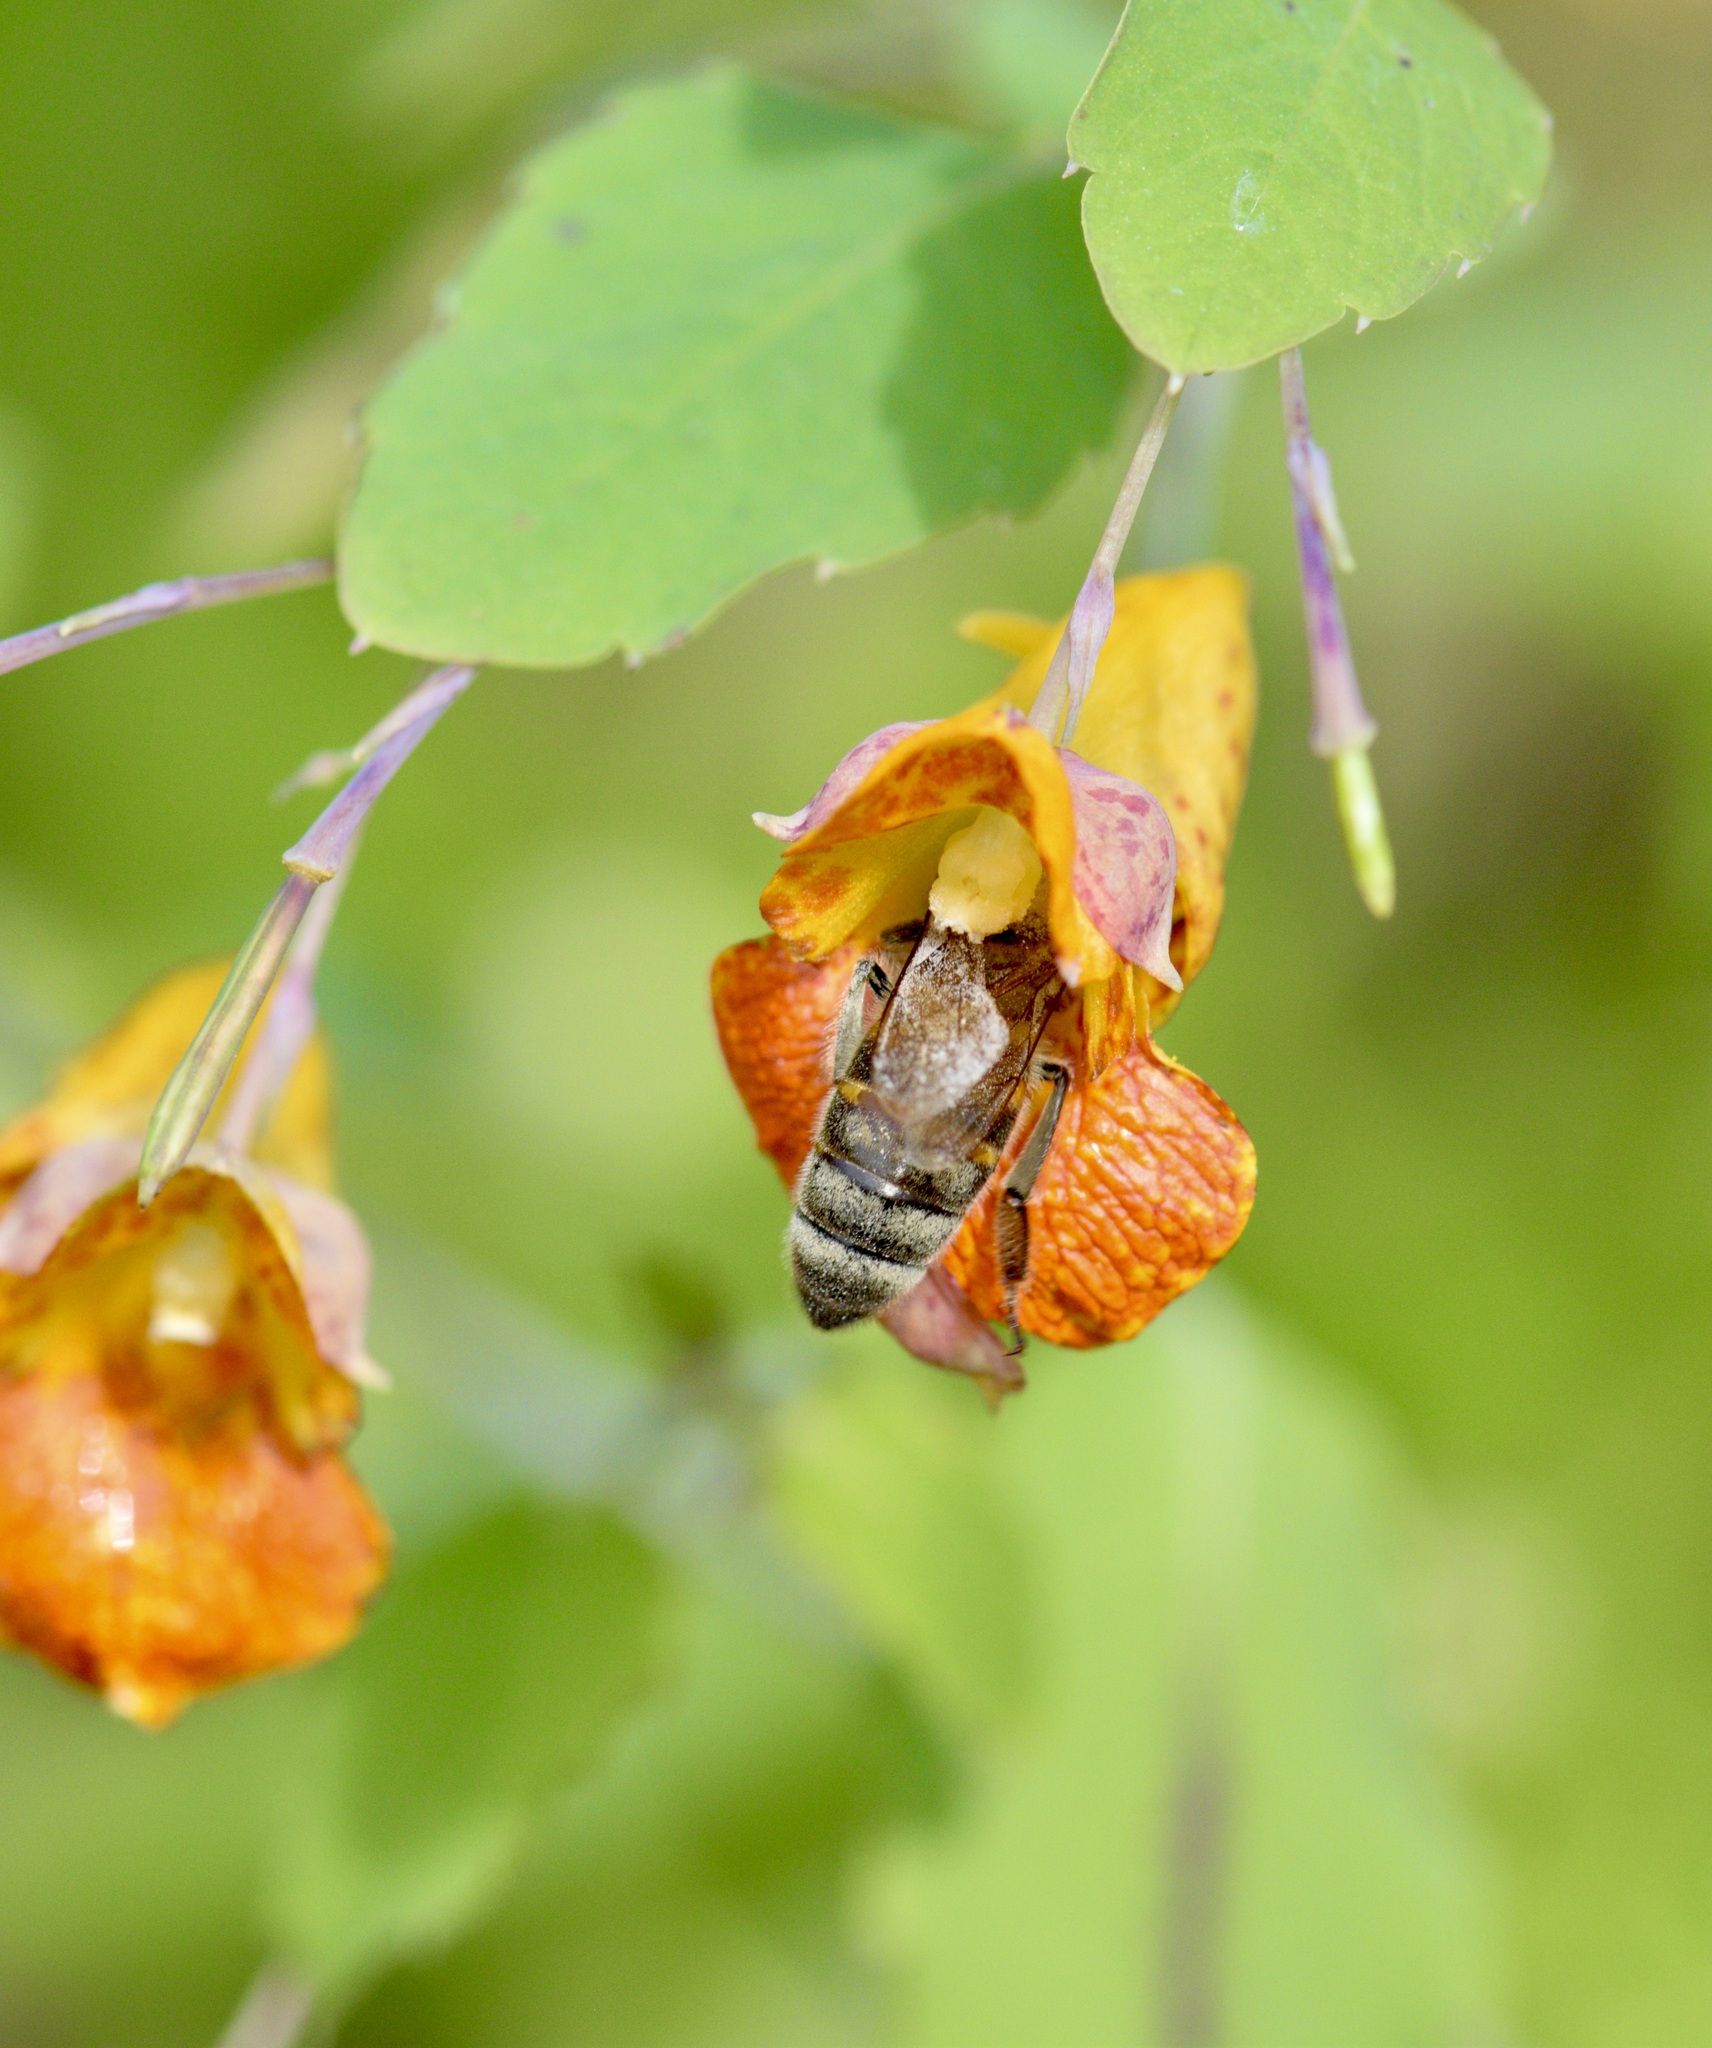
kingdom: Animalia
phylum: Arthropoda
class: Insecta
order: Hymenoptera
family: Apidae
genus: Apis
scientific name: Apis mellifera
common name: Honey bee
